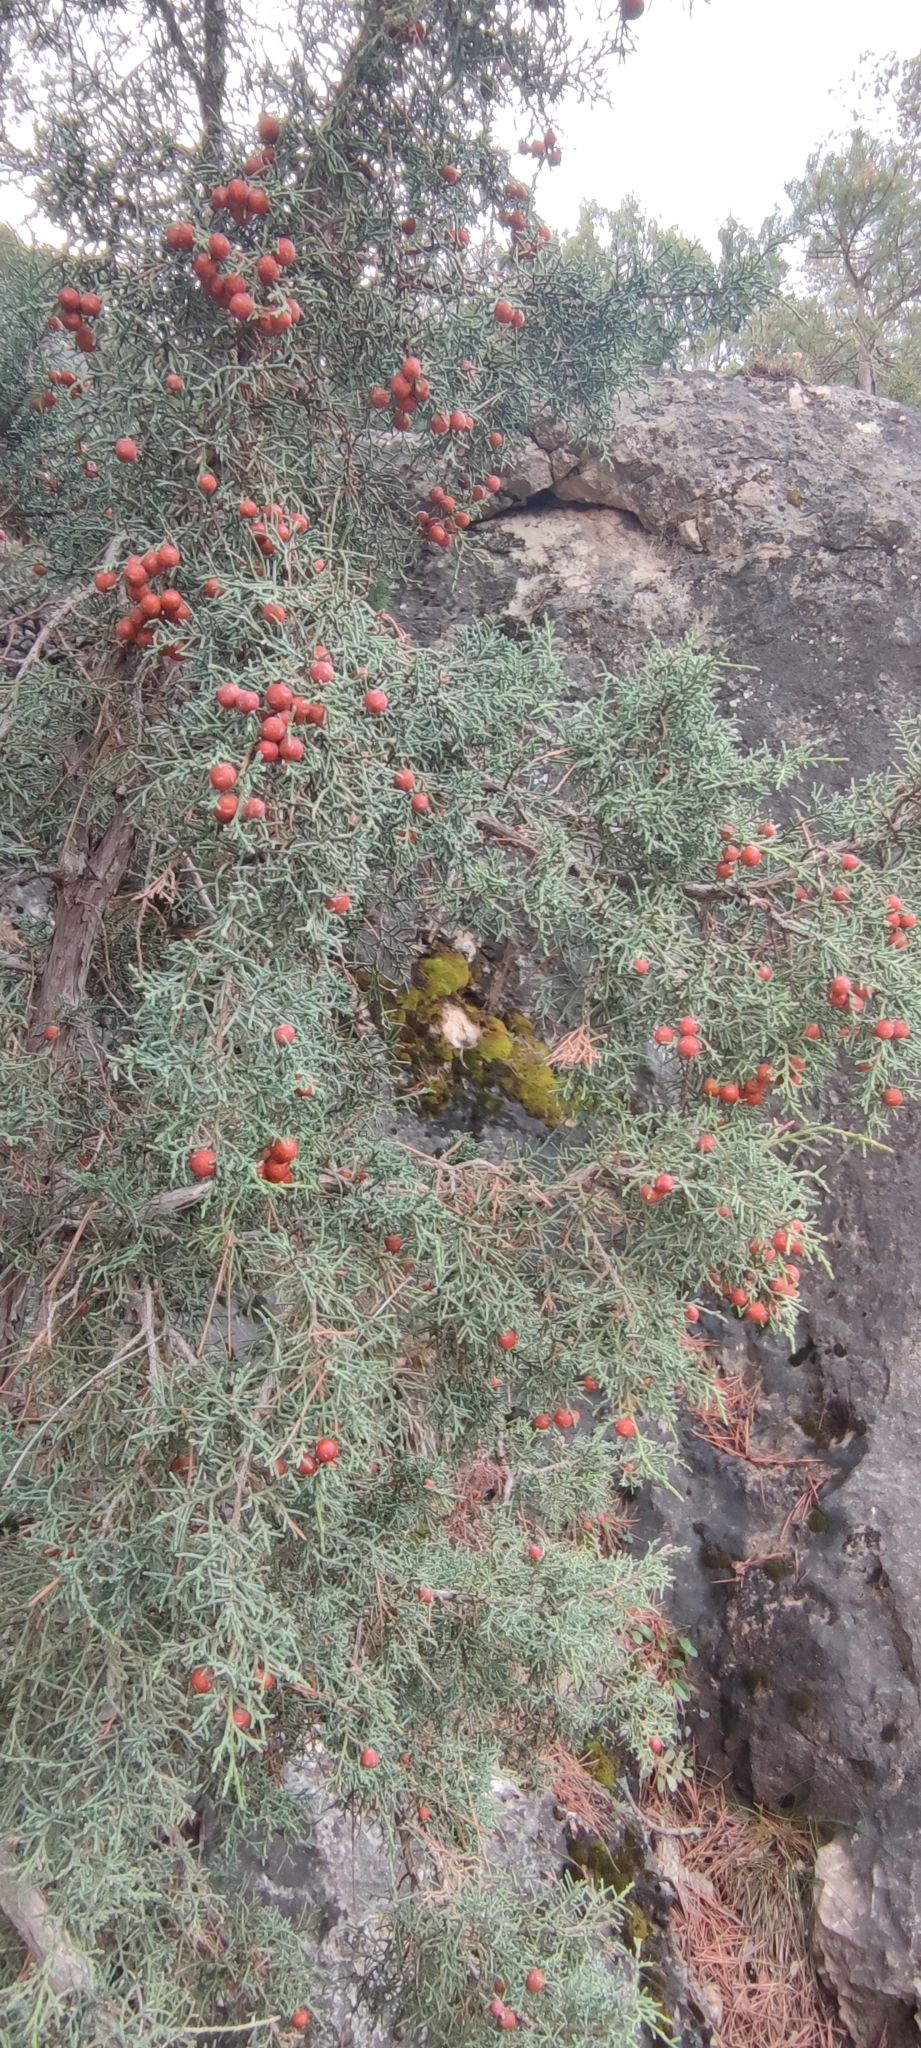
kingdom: Plantae
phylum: Tracheophyta
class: Pinopsida
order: Pinales
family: Cupressaceae
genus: Juniperus
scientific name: Juniperus phoenicea
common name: Phoenician juniper
